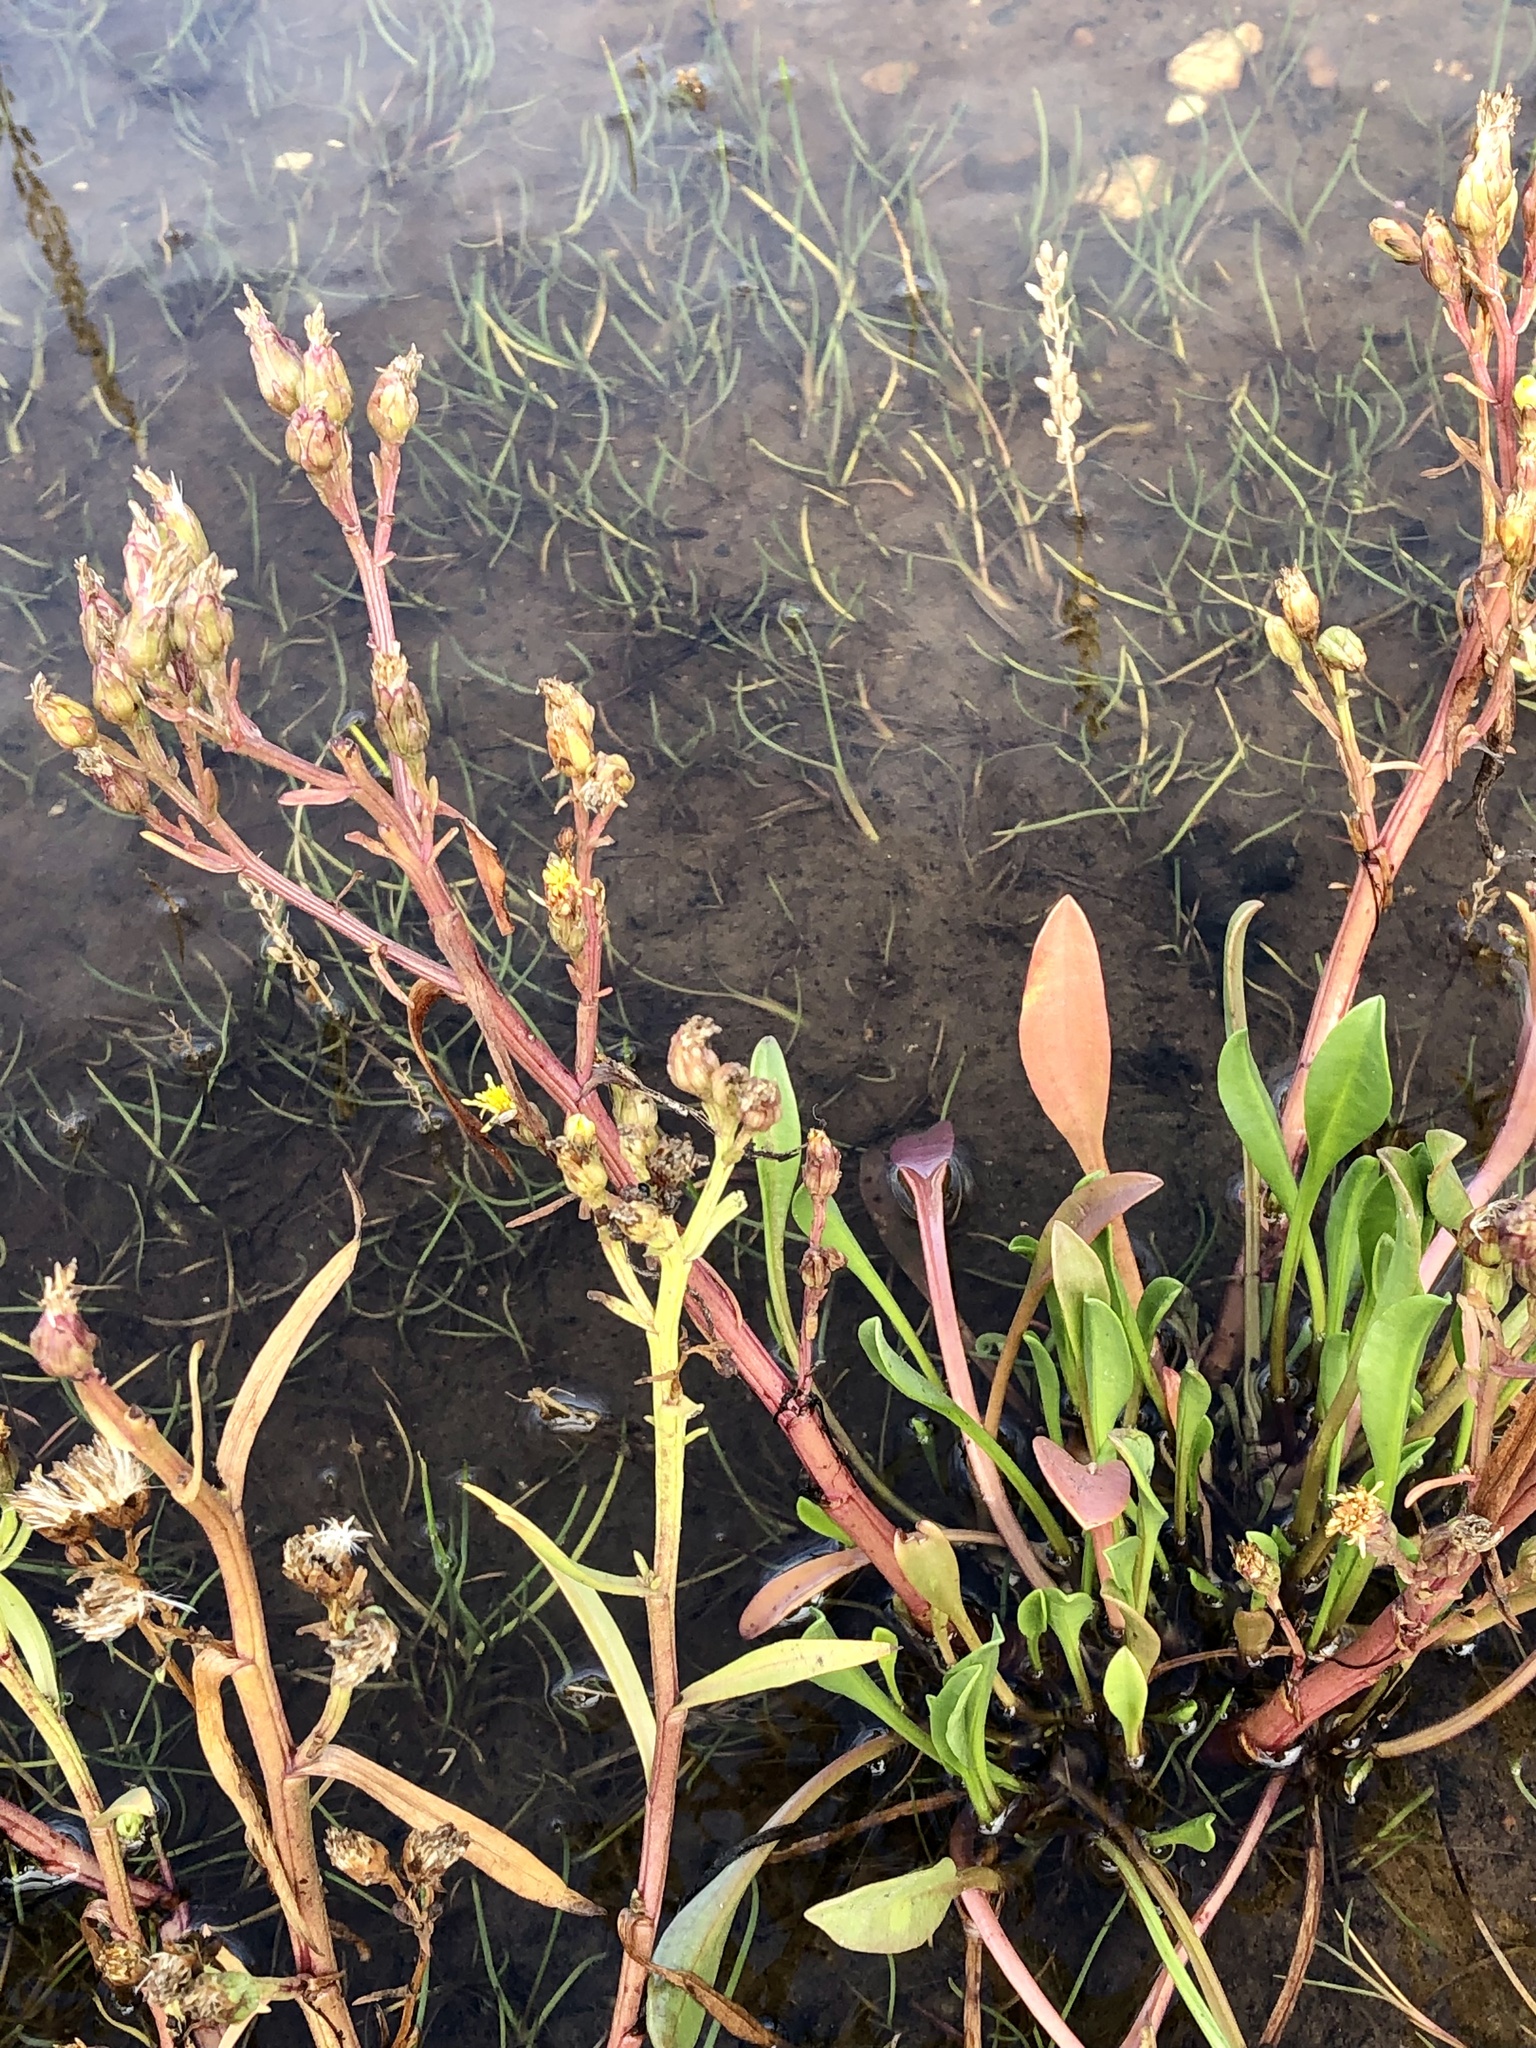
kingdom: Plantae
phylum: Tracheophyta
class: Magnoliopsida
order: Asterales
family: Asteraceae
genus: Tripolium
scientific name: Tripolium pannonicum
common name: Sea aster
